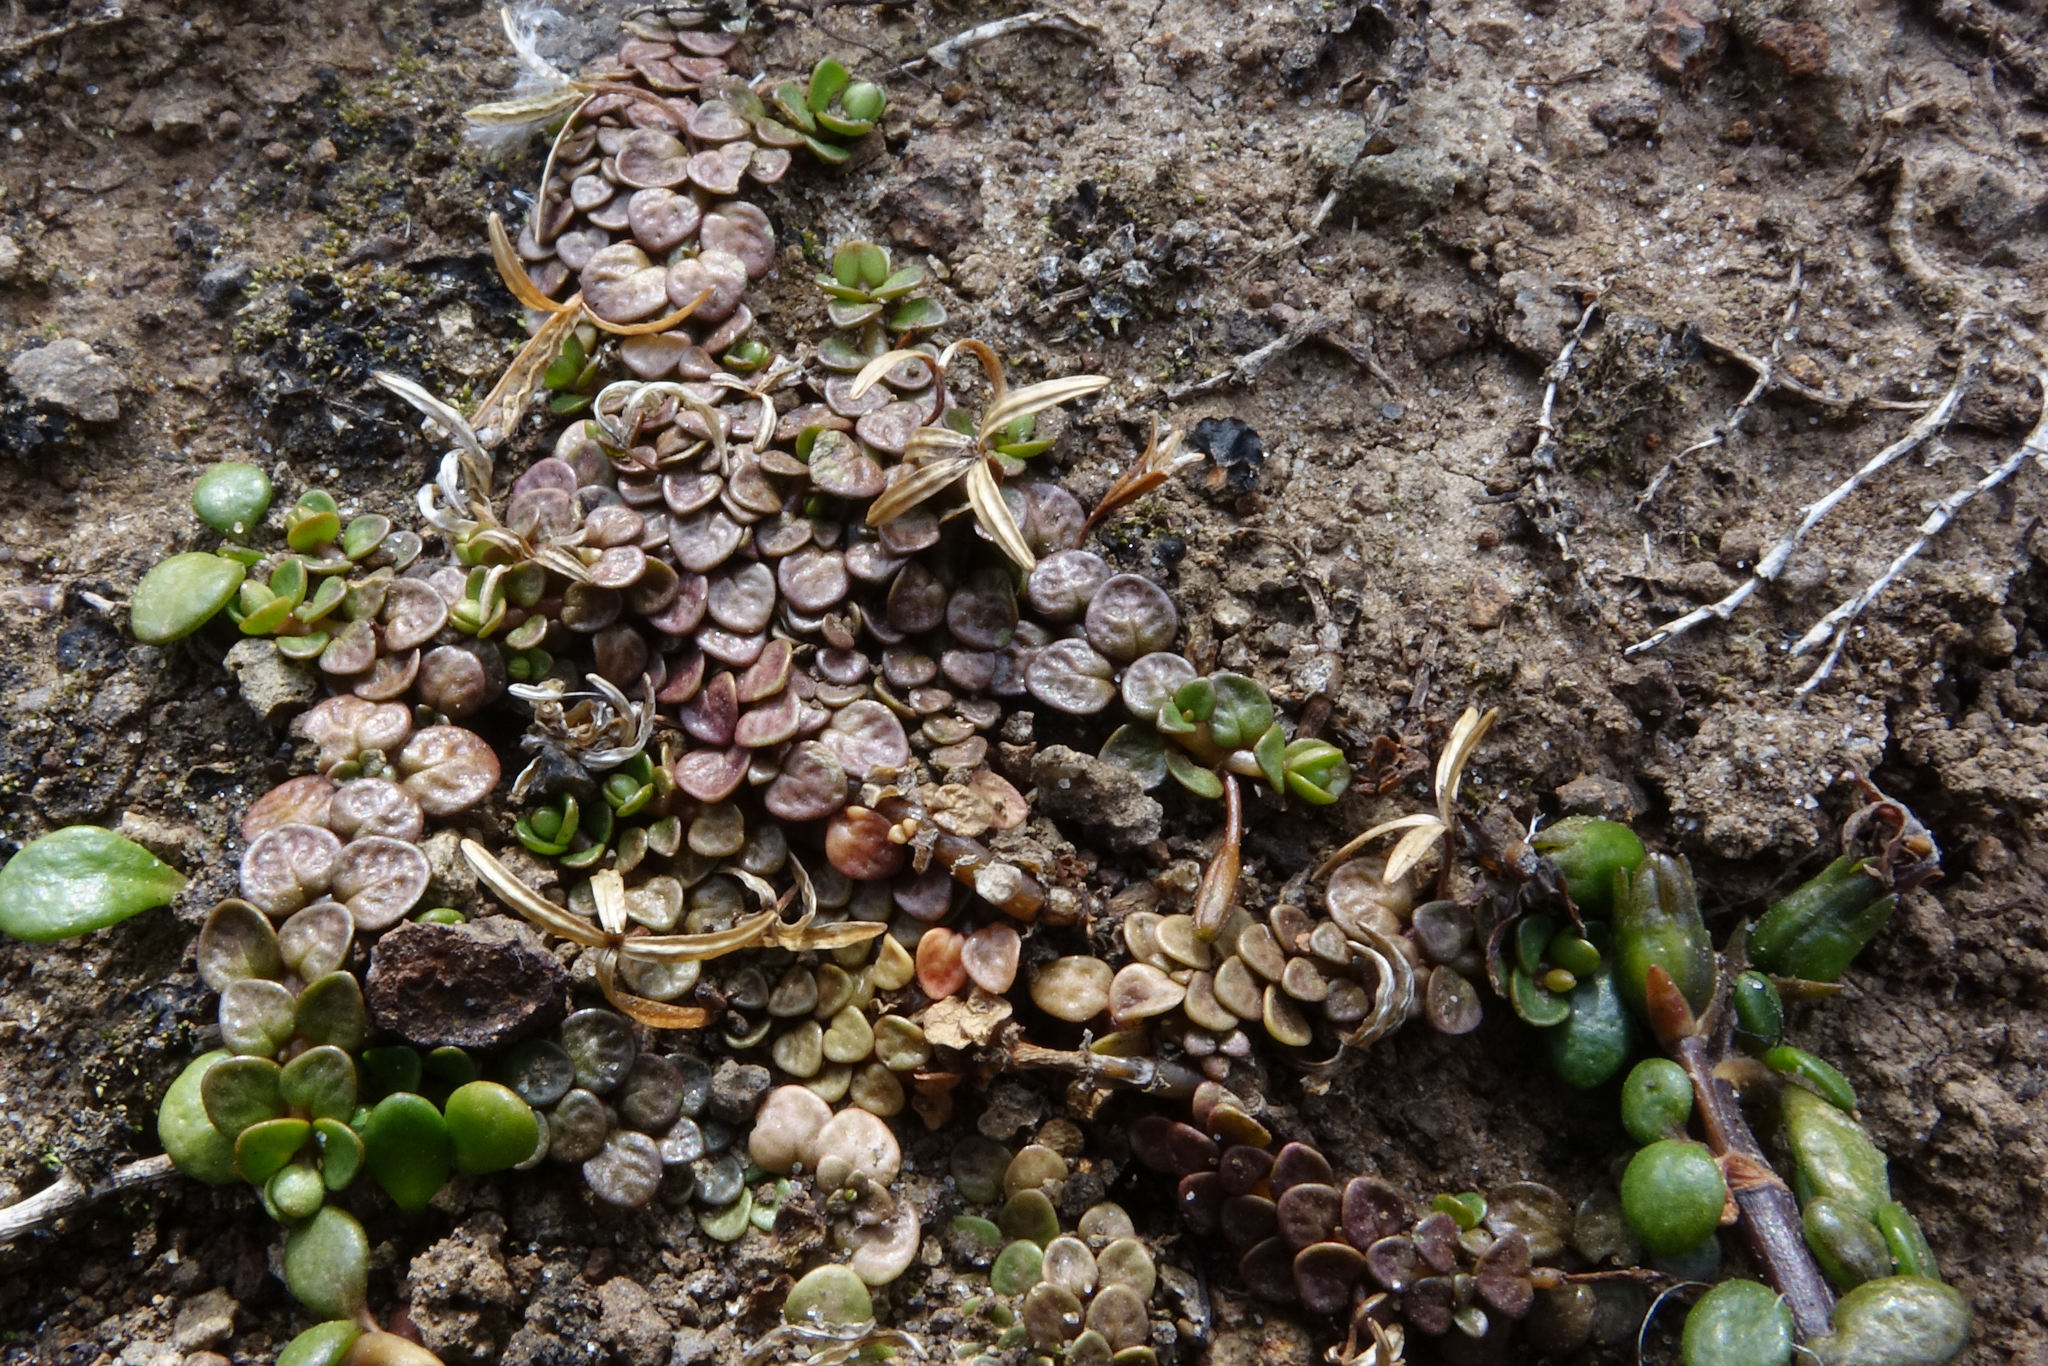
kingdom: Plantae
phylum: Tracheophyta
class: Magnoliopsida
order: Myrtales
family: Onagraceae
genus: Epilobium
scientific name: Epilobium komarovianum
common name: Bronzy willowherb
